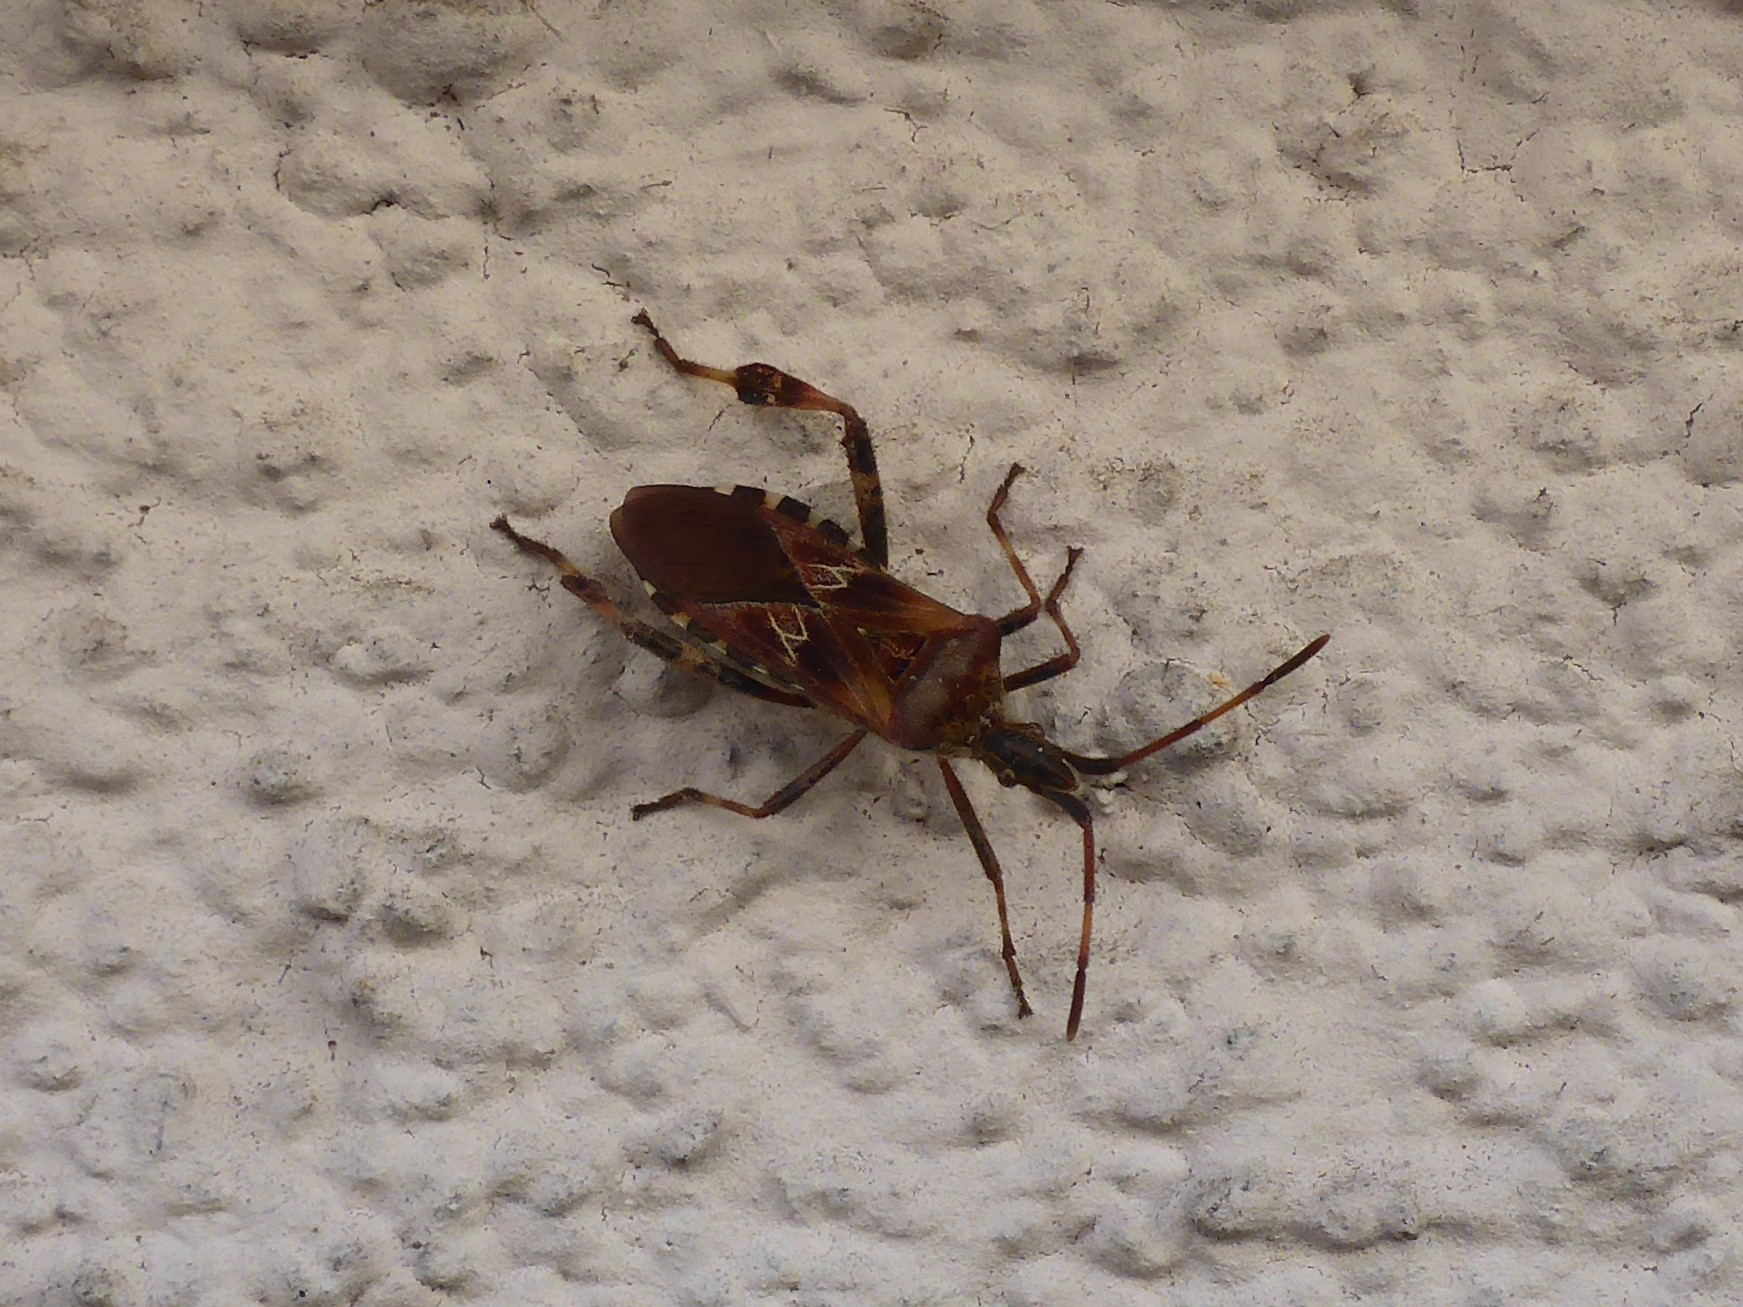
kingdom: Animalia
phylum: Arthropoda
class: Insecta
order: Hemiptera
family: Coreidae
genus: Leptoglossus
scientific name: Leptoglossus occidentalis
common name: Western conifer-seed bug
